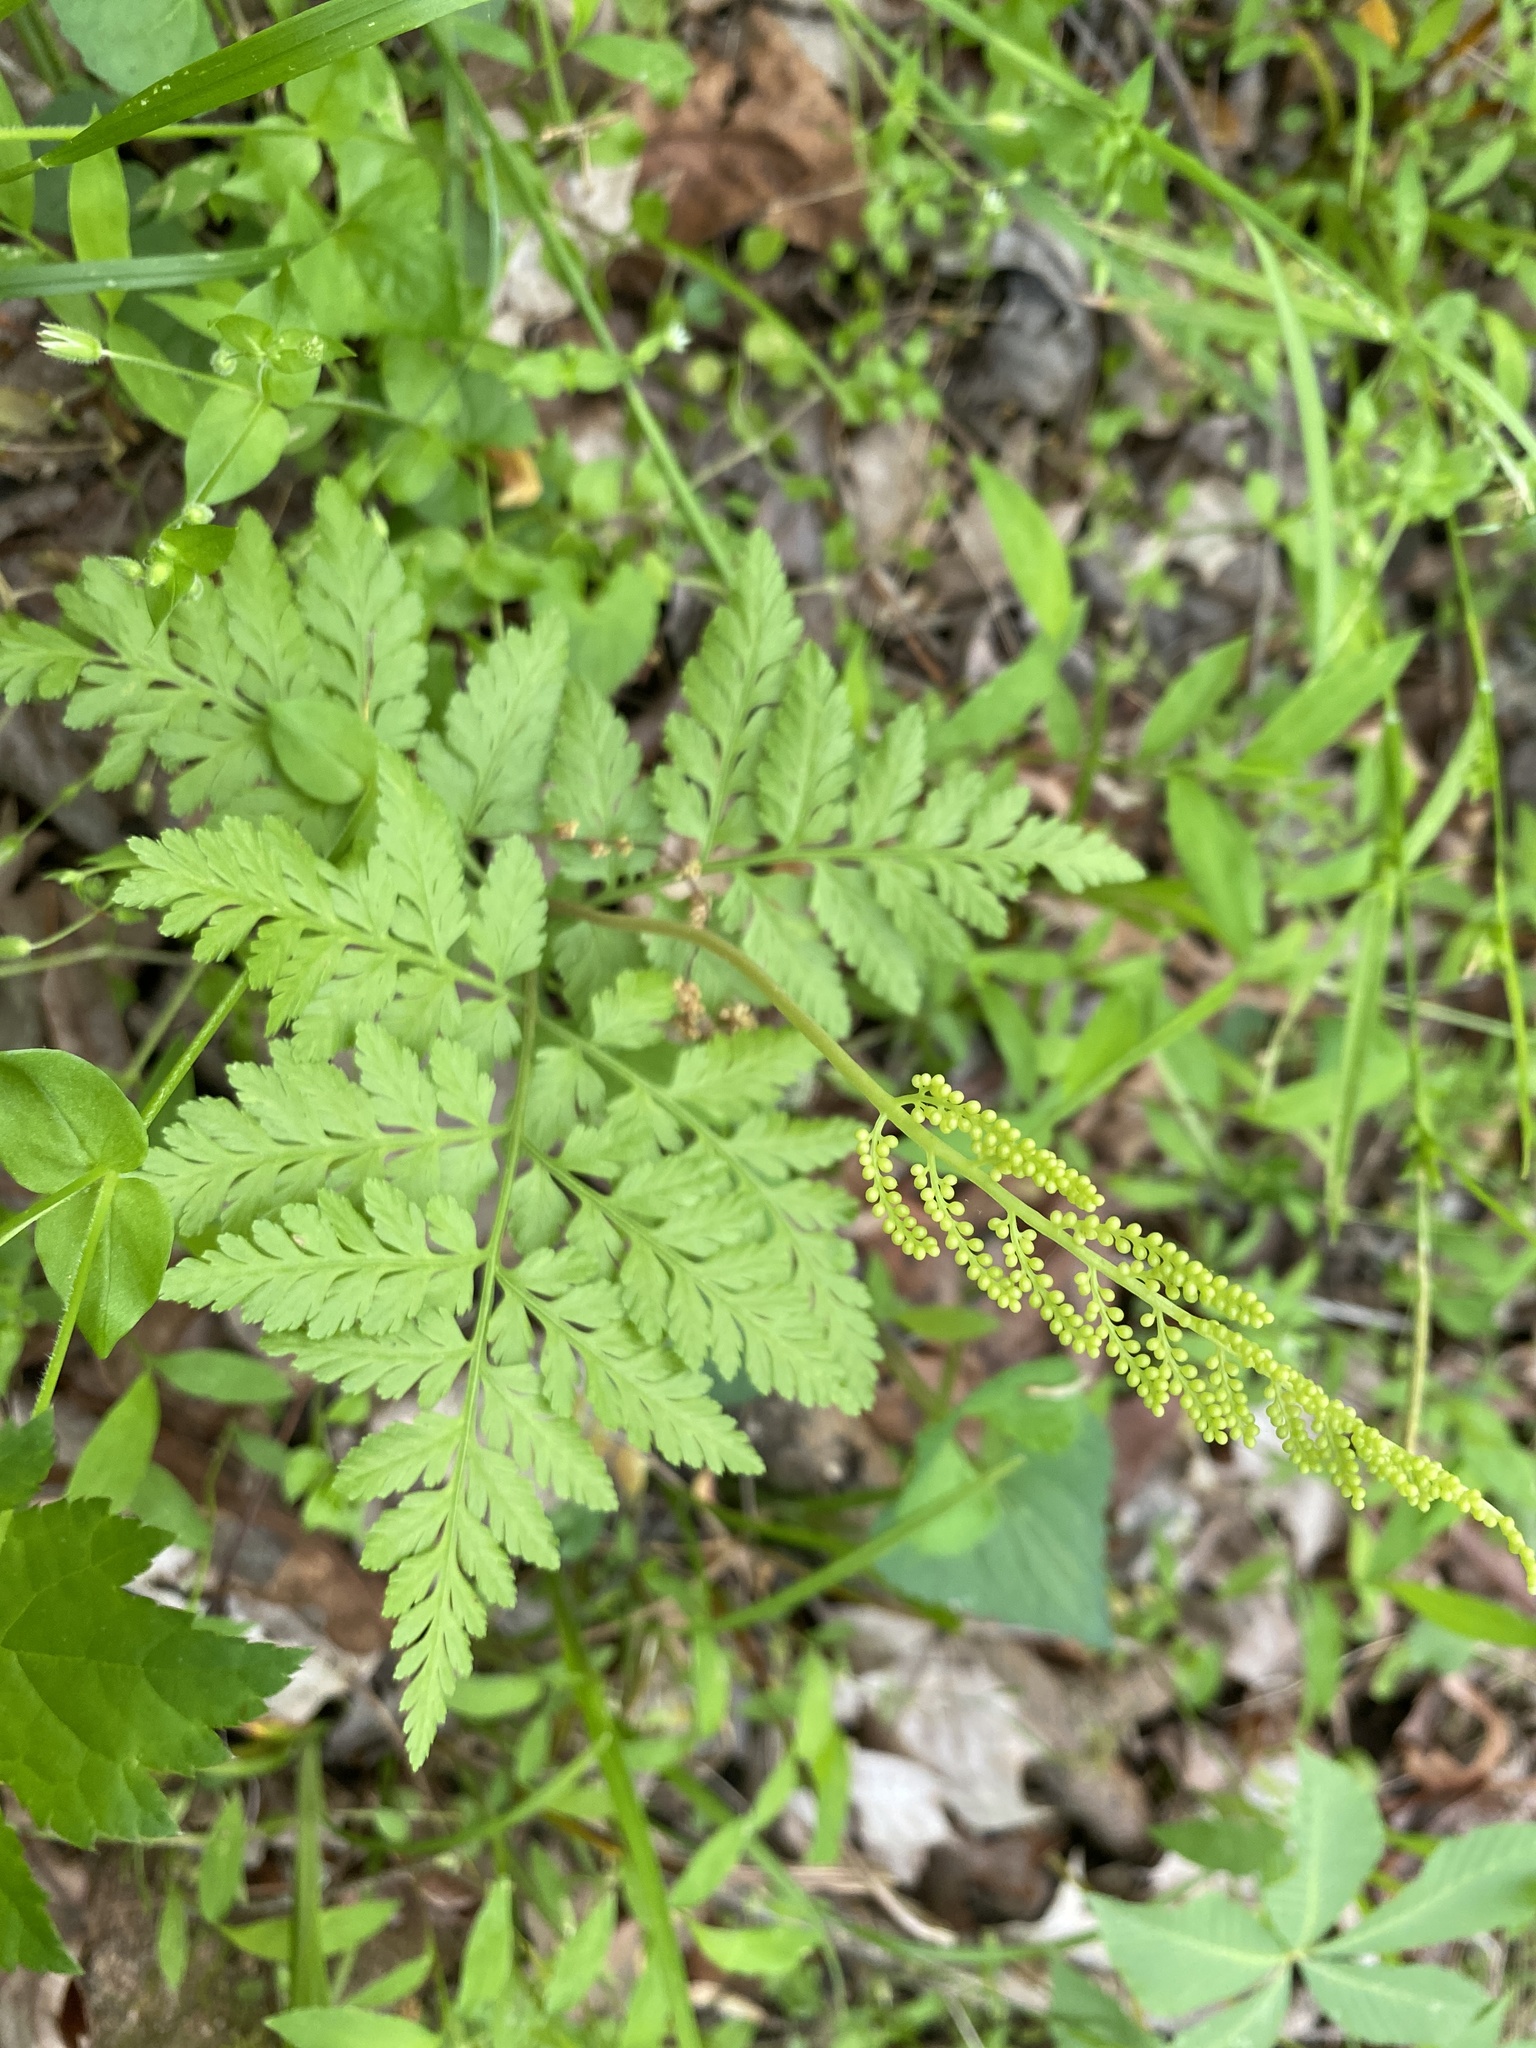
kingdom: Plantae
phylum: Tracheophyta
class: Polypodiopsida
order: Ophioglossales
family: Ophioglossaceae
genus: Botrypus
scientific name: Botrypus virginianus
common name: Common grapefern
